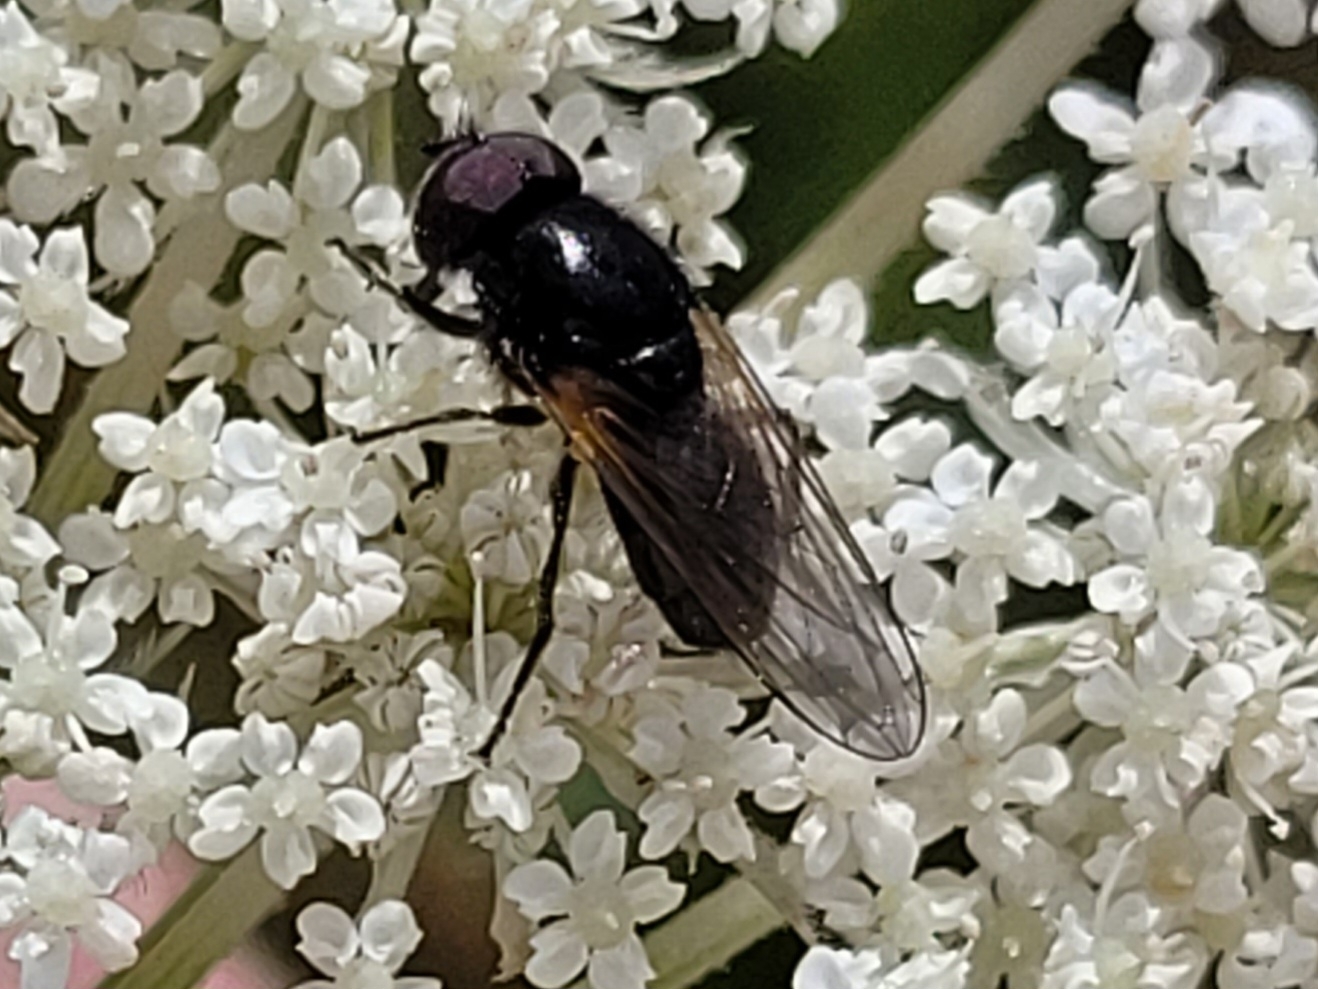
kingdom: Animalia
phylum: Arthropoda
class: Insecta
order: Diptera
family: Syrphidae
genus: Cheilosia
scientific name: Cheilosia impressa
